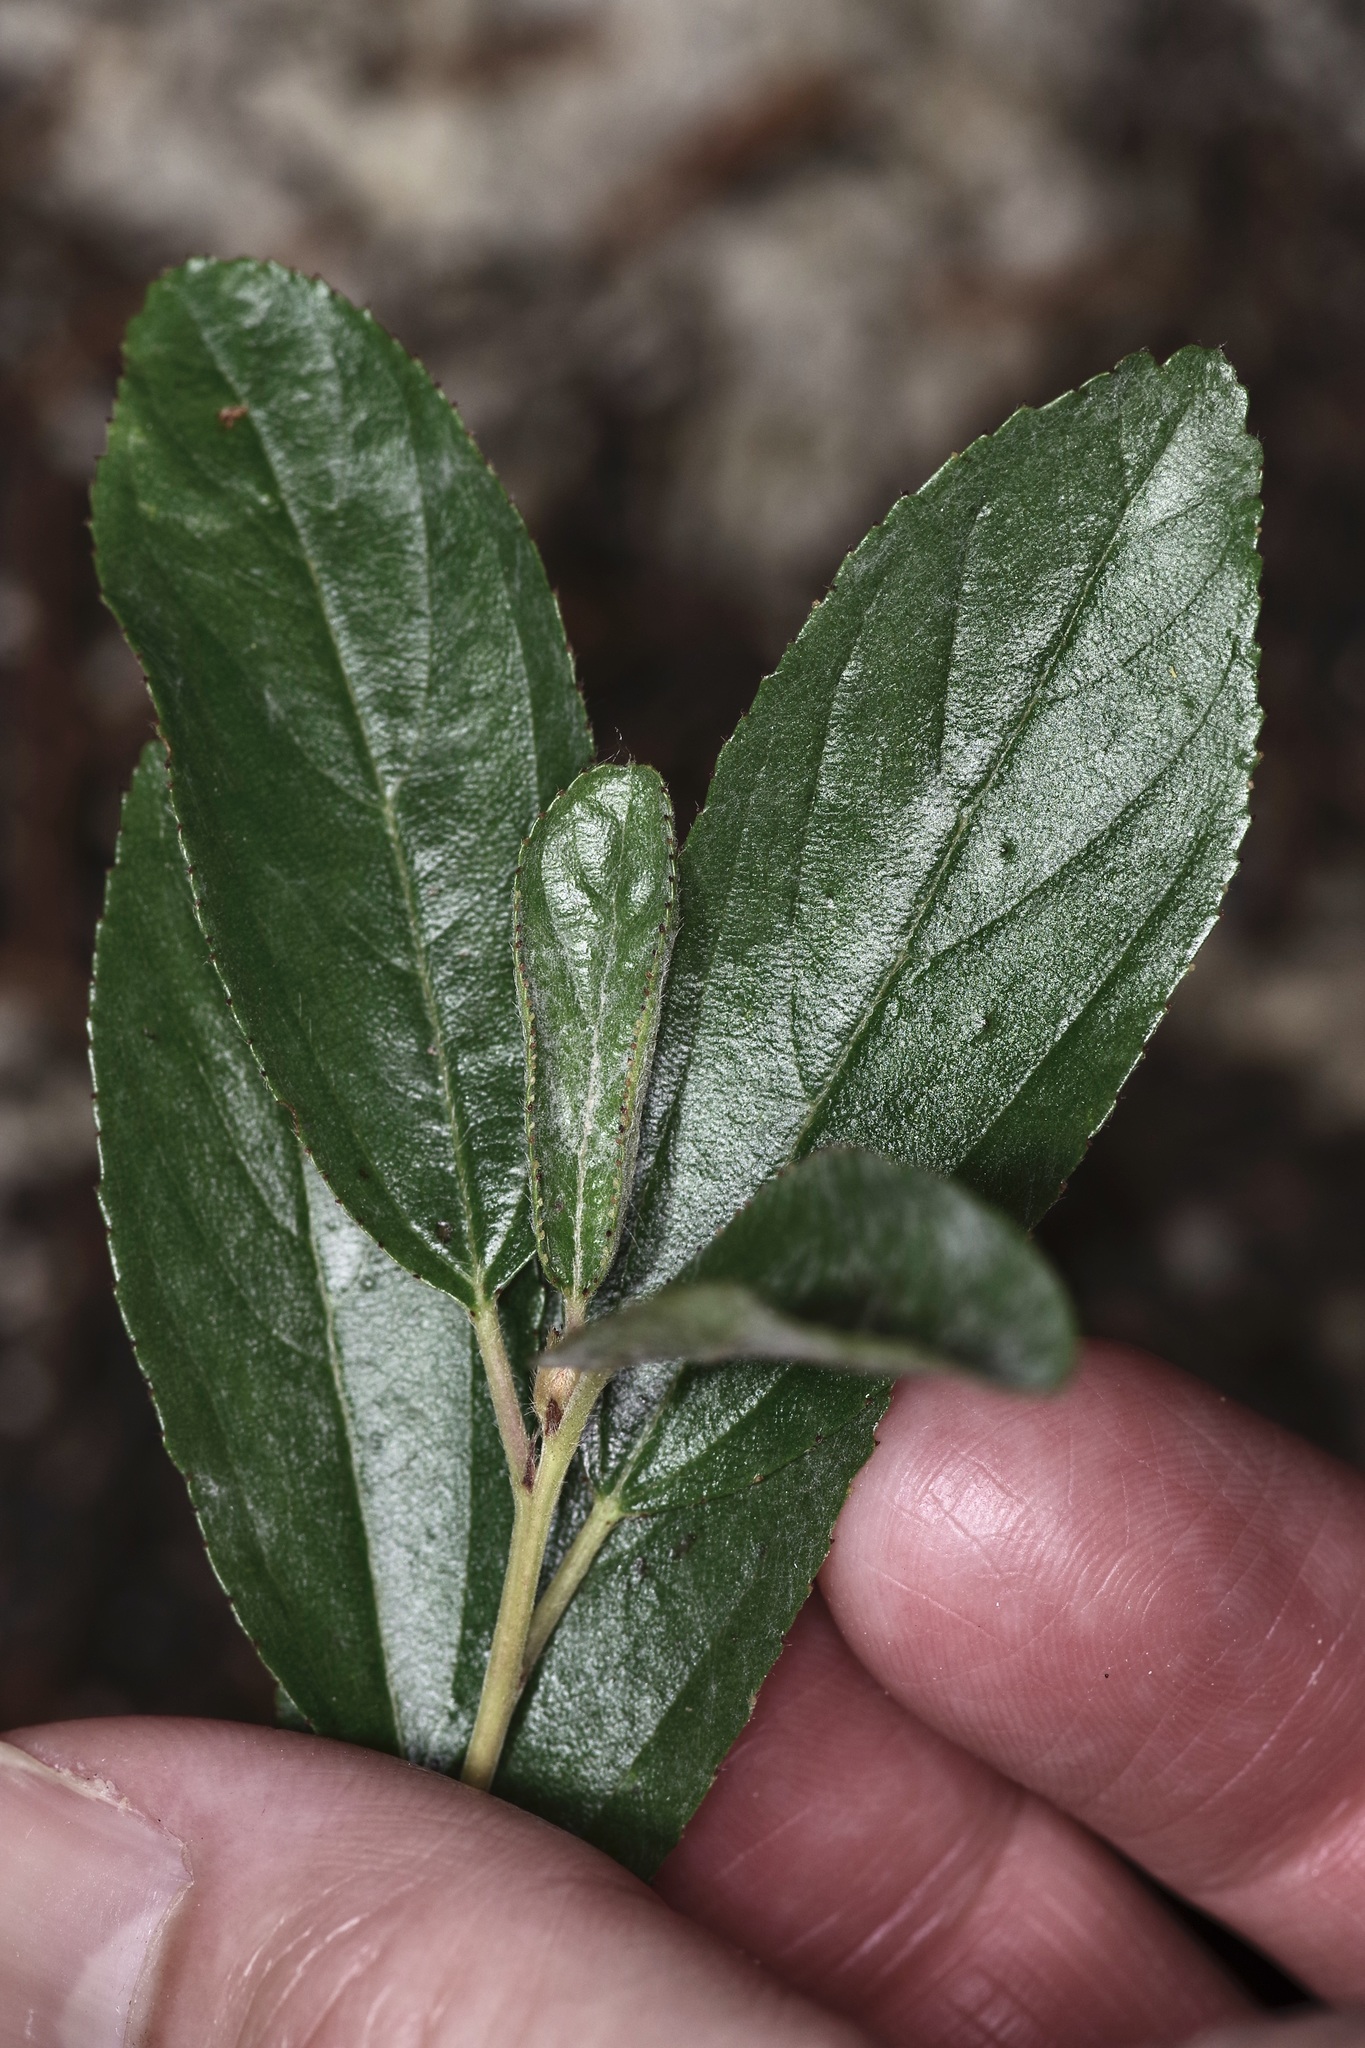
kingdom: Plantae
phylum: Tracheophyta
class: Magnoliopsida
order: Malpighiales
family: Euphorbiaceae
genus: Ditaxis
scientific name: Ditaxis mercurialina
